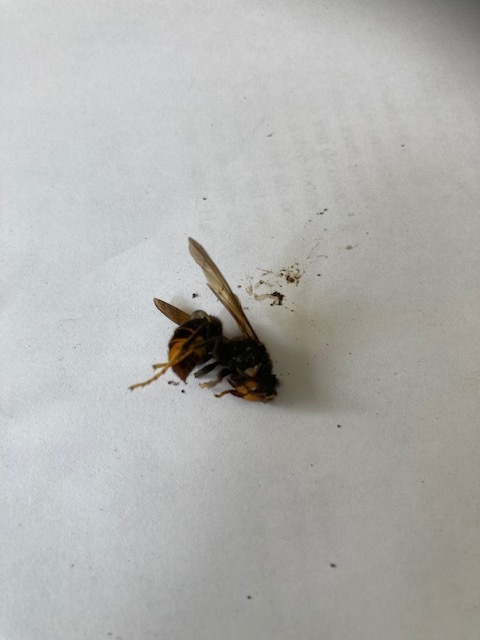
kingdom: Animalia
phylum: Arthropoda
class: Insecta
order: Hymenoptera
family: Vespidae
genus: Vespa
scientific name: Vespa velutina
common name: Asian hornet
